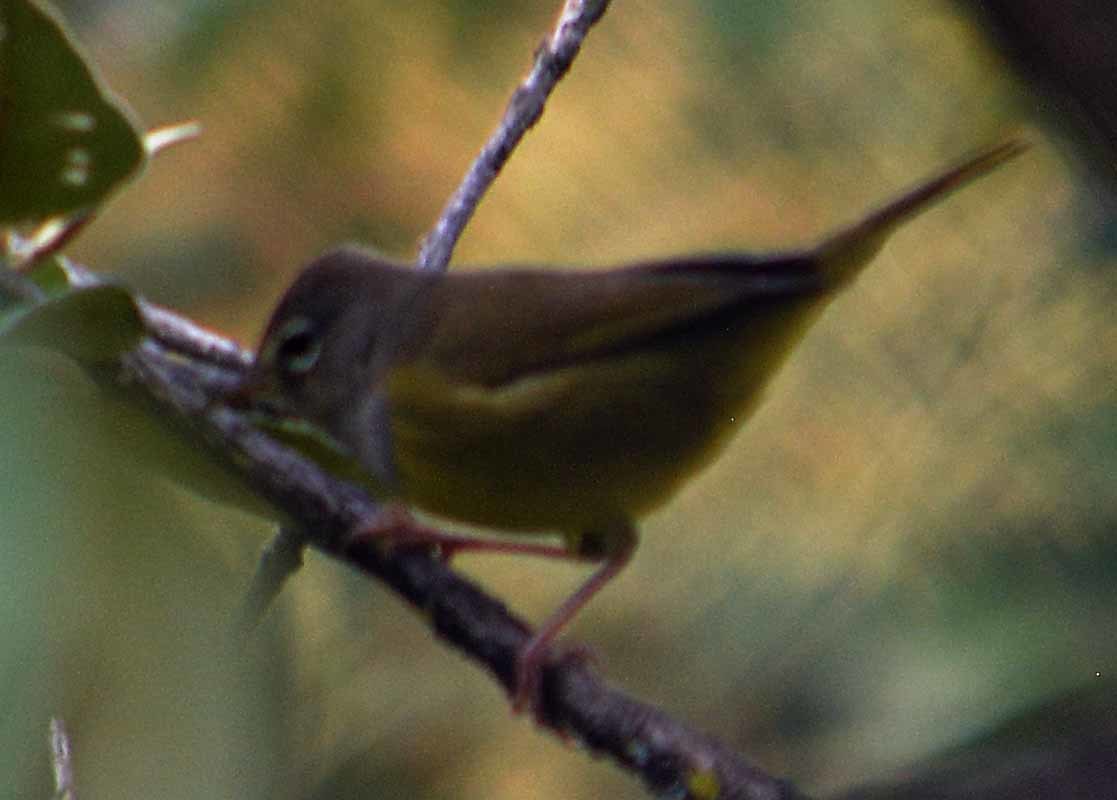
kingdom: Animalia
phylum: Chordata
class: Aves
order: Passeriformes
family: Parulidae
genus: Geothlypis
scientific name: Geothlypis tolmiei
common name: Macgillivray's warbler
